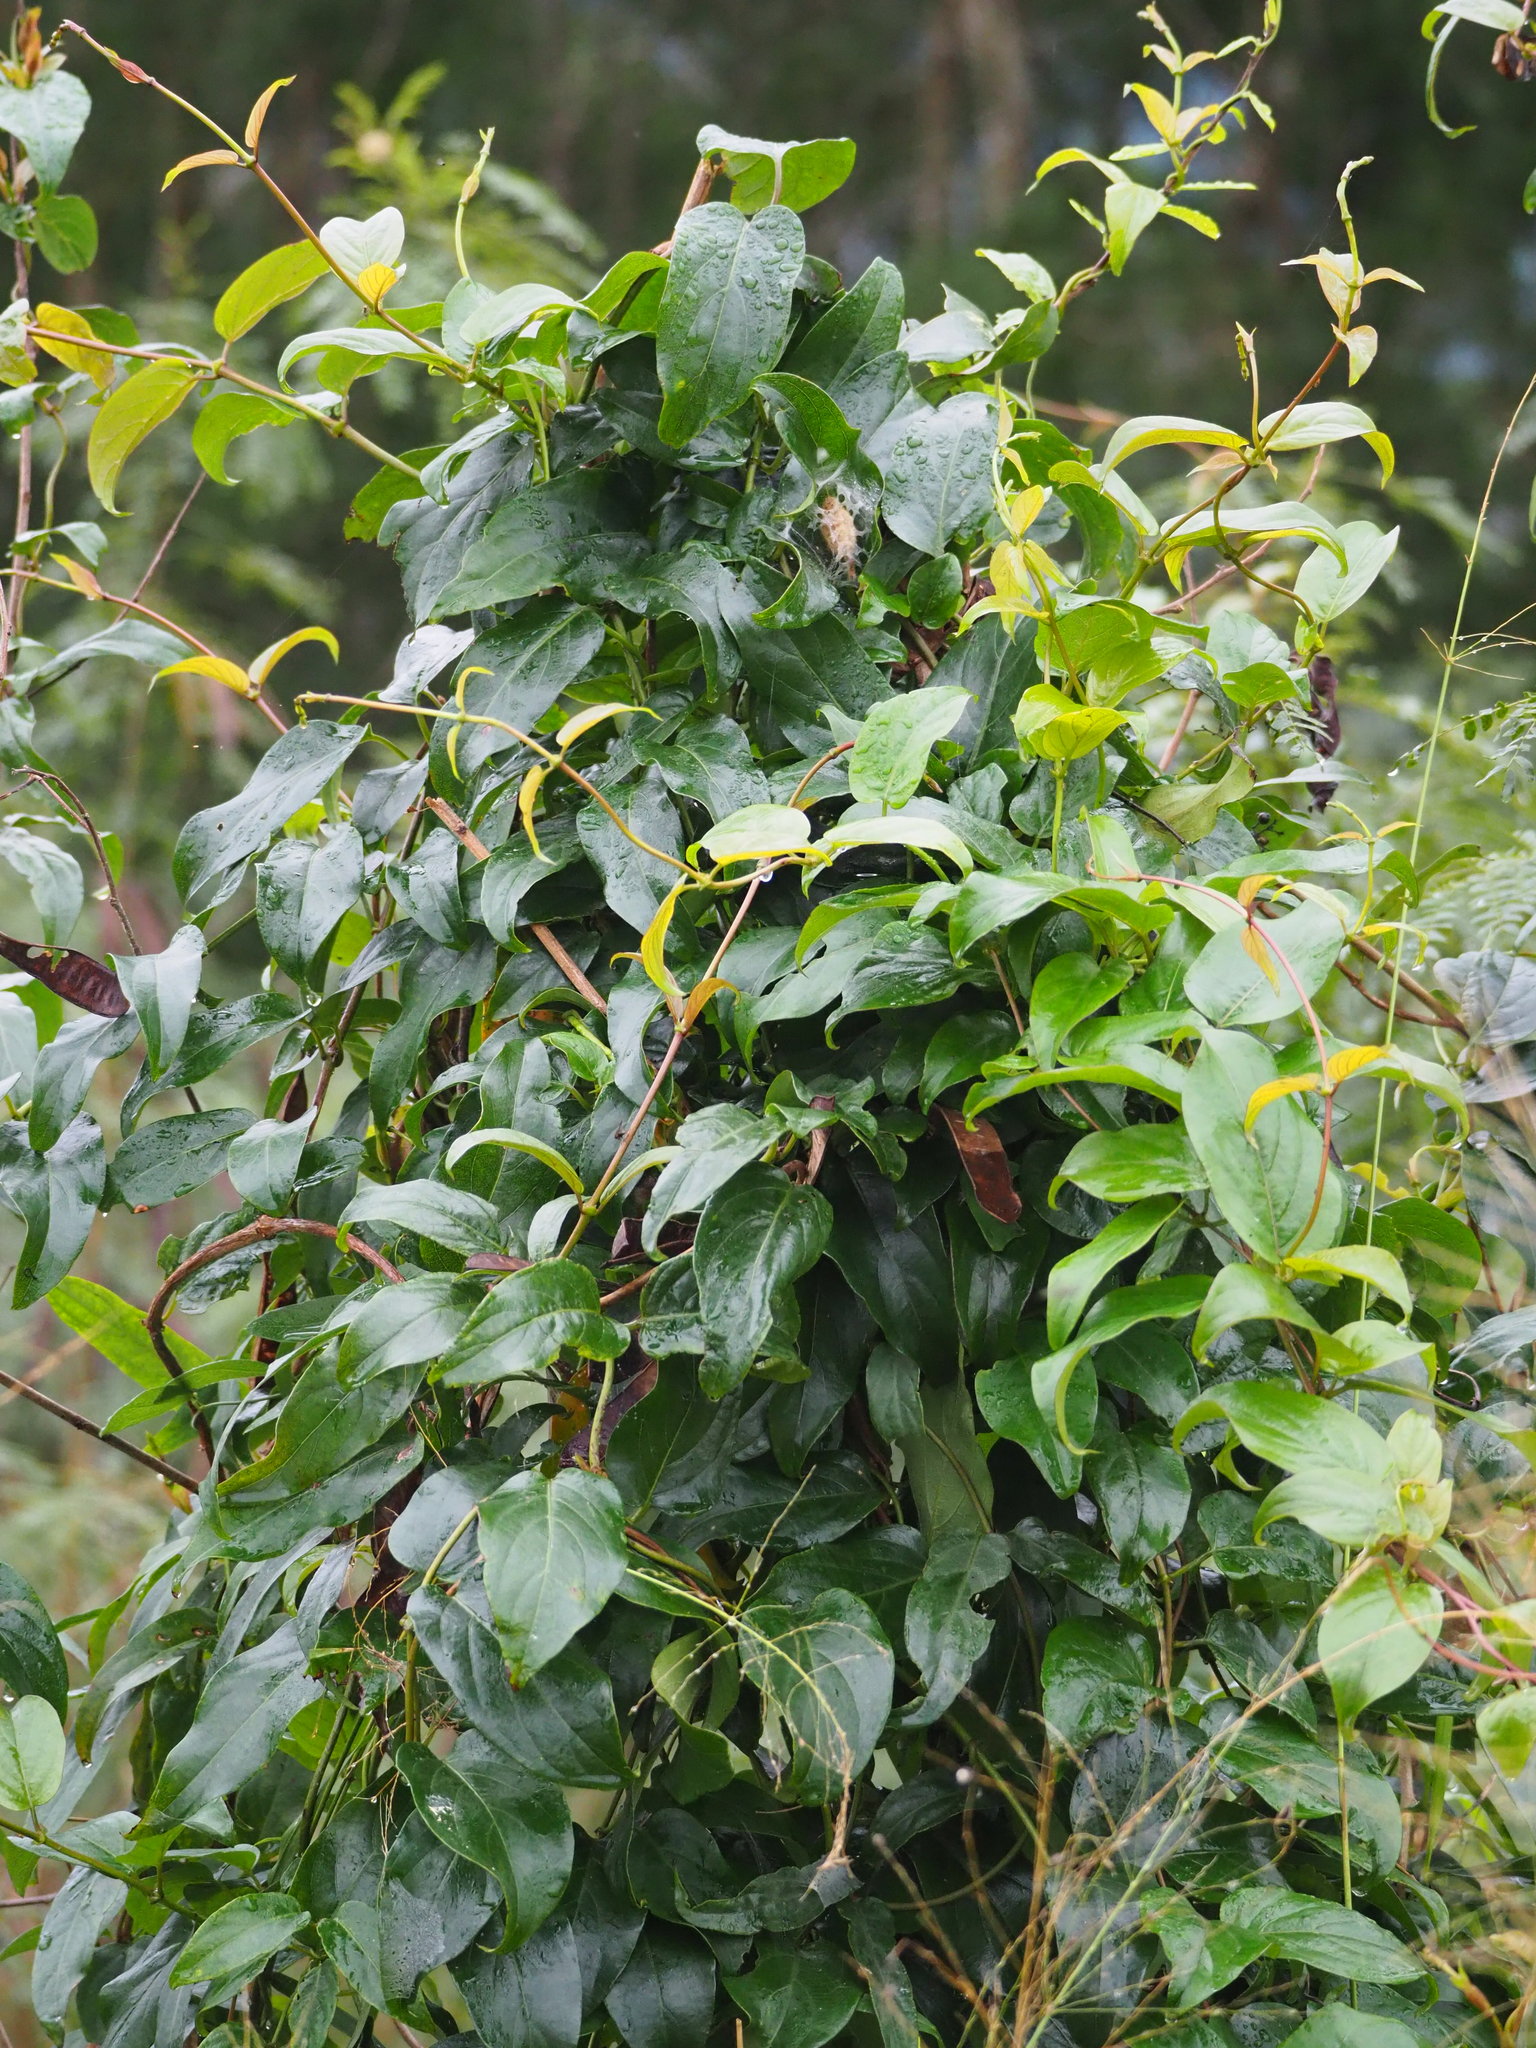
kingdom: Plantae
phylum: Tracheophyta
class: Magnoliopsida
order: Gentianales
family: Rubiaceae
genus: Paederia
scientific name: Paederia foetida
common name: Stinkvine
